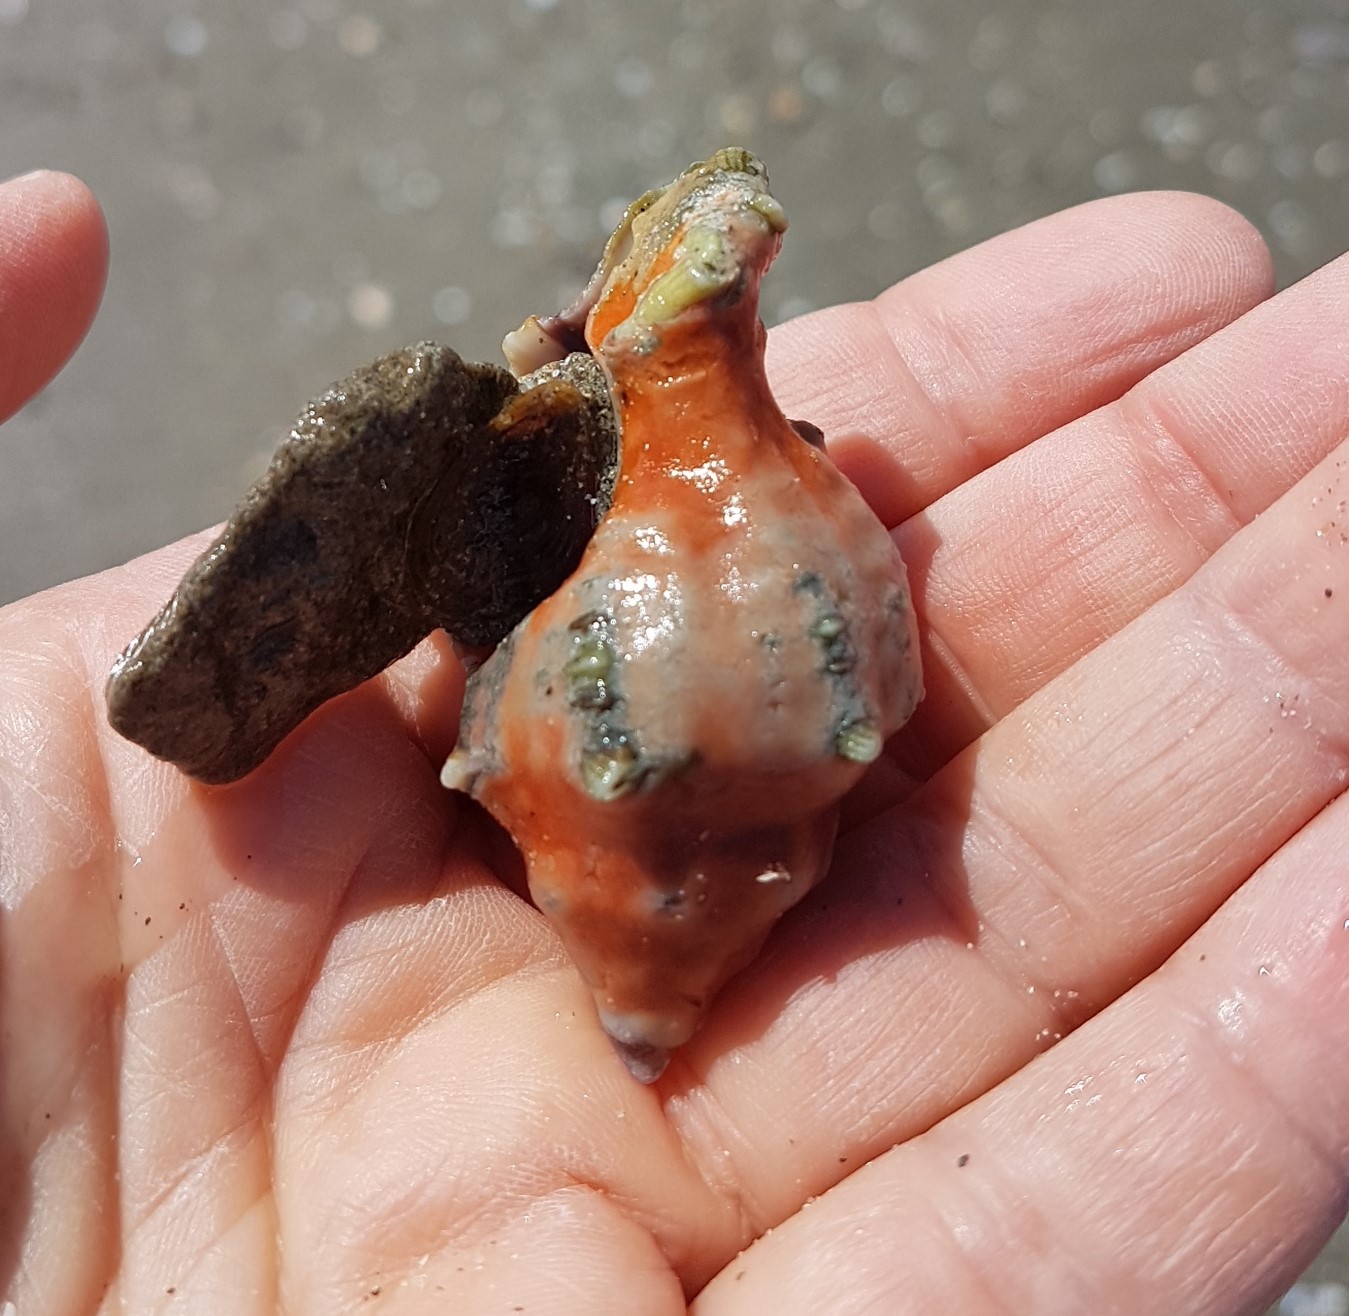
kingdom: Animalia
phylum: Mollusca
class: Gastropoda
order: Neogastropoda
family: Muricidae
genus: Hexaplex
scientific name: Hexaplex trunculus
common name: Banded dye-murex
